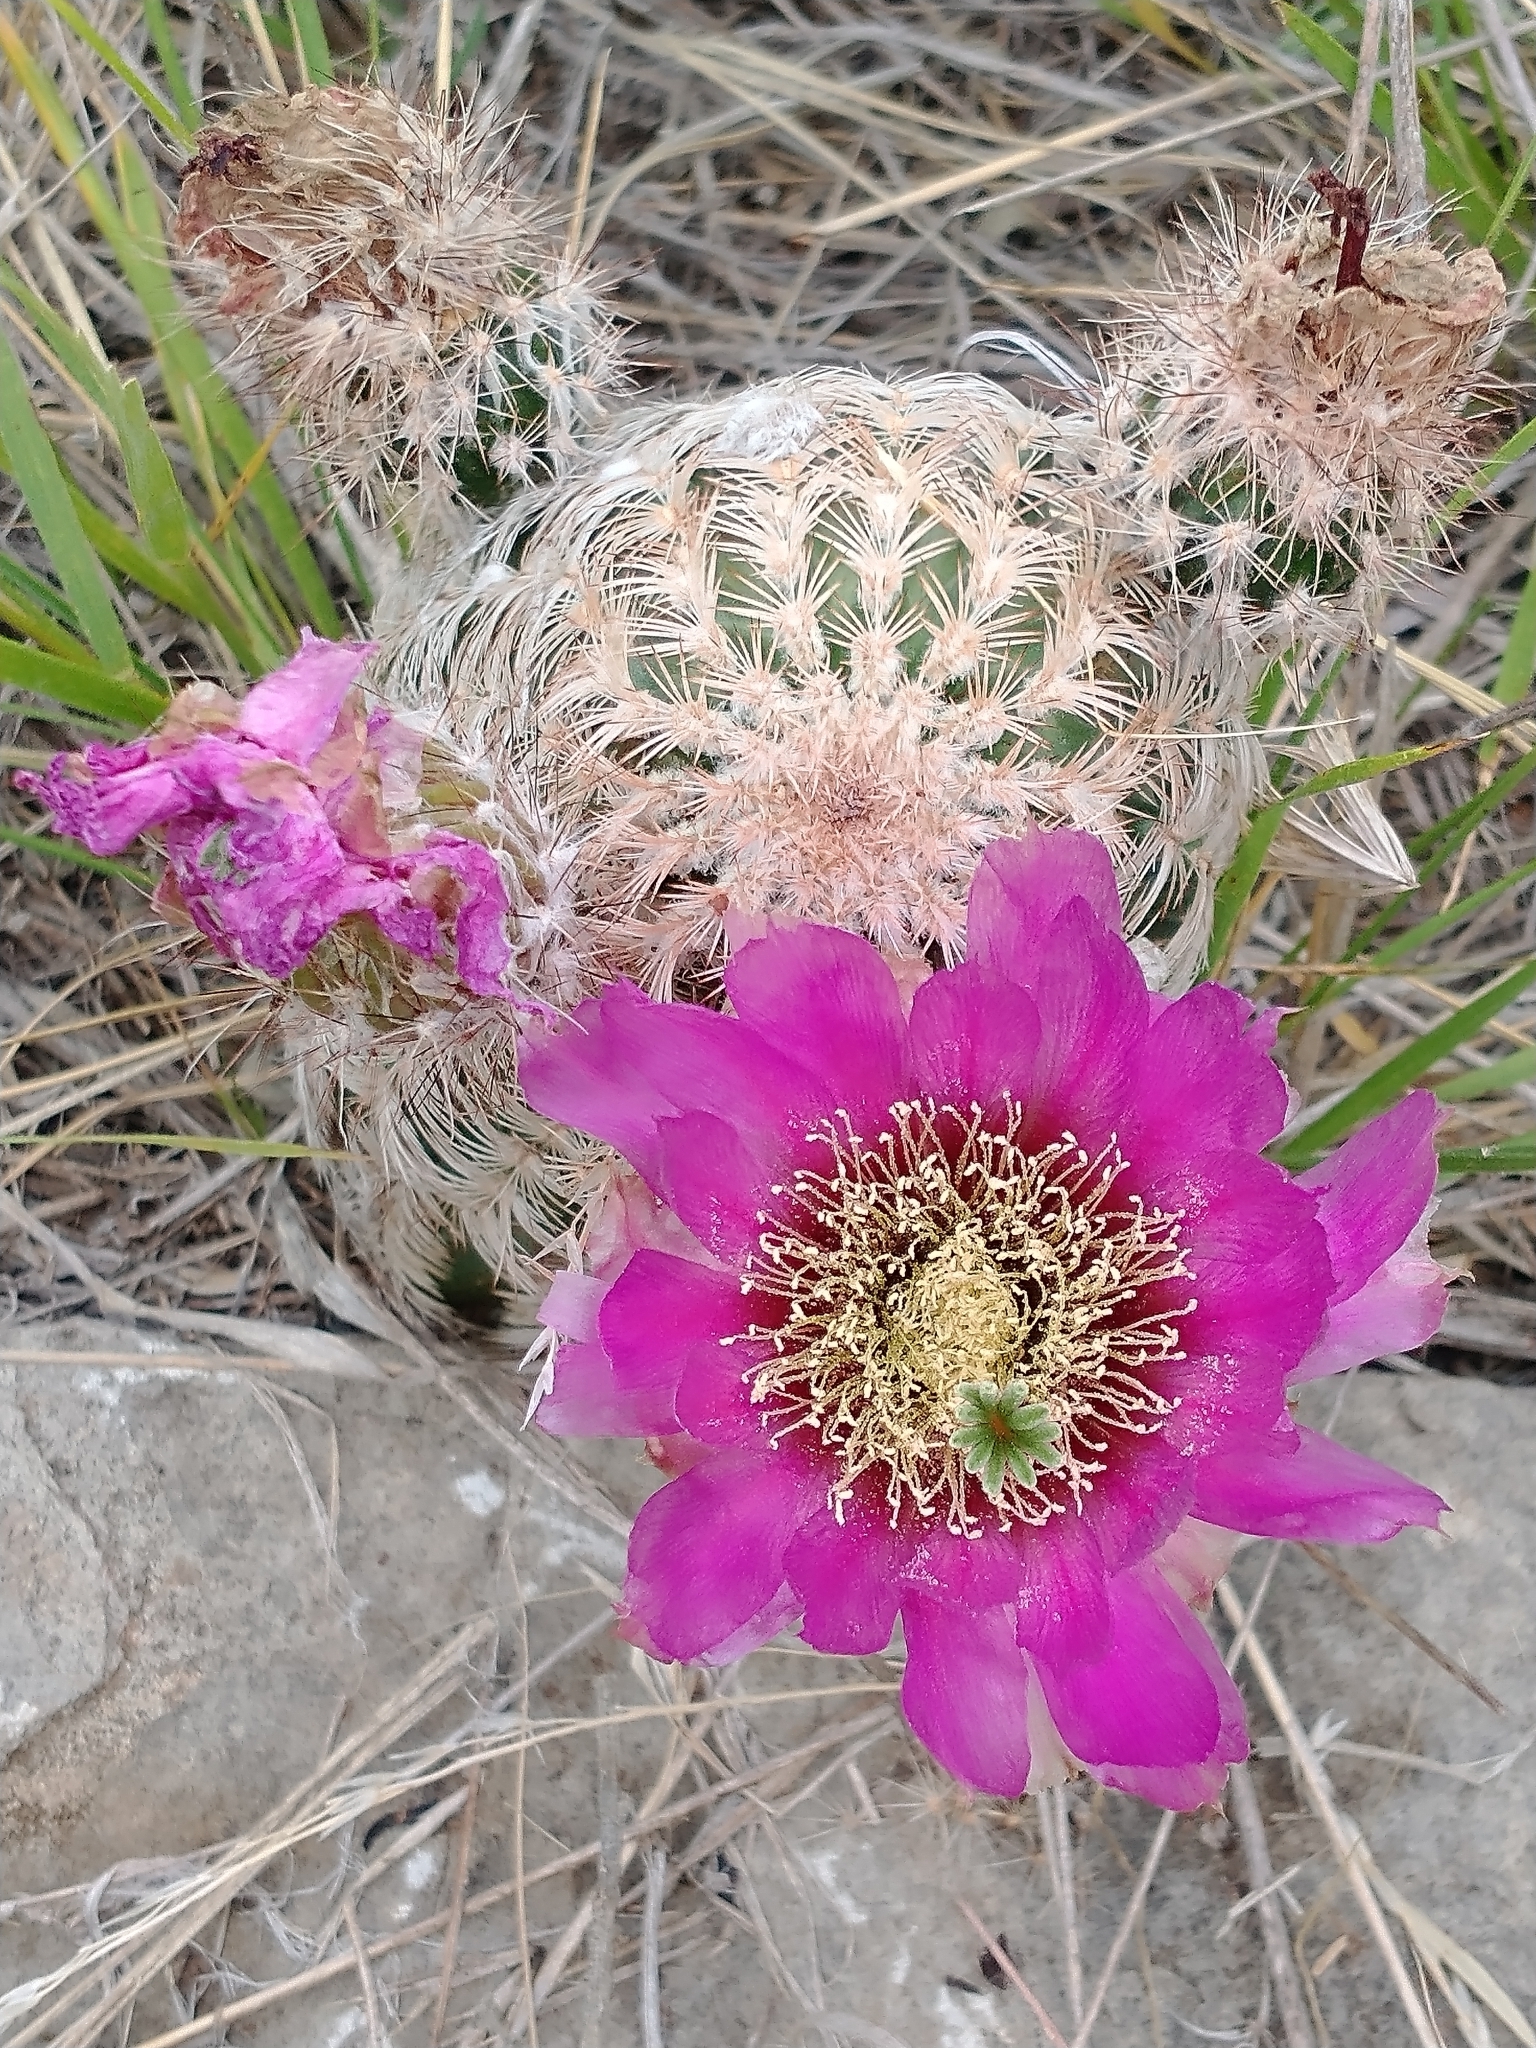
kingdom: Plantae
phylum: Tracheophyta
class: Magnoliopsida
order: Caryophyllales
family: Cactaceae
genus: Echinocereus
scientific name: Echinocereus reichenbachii
